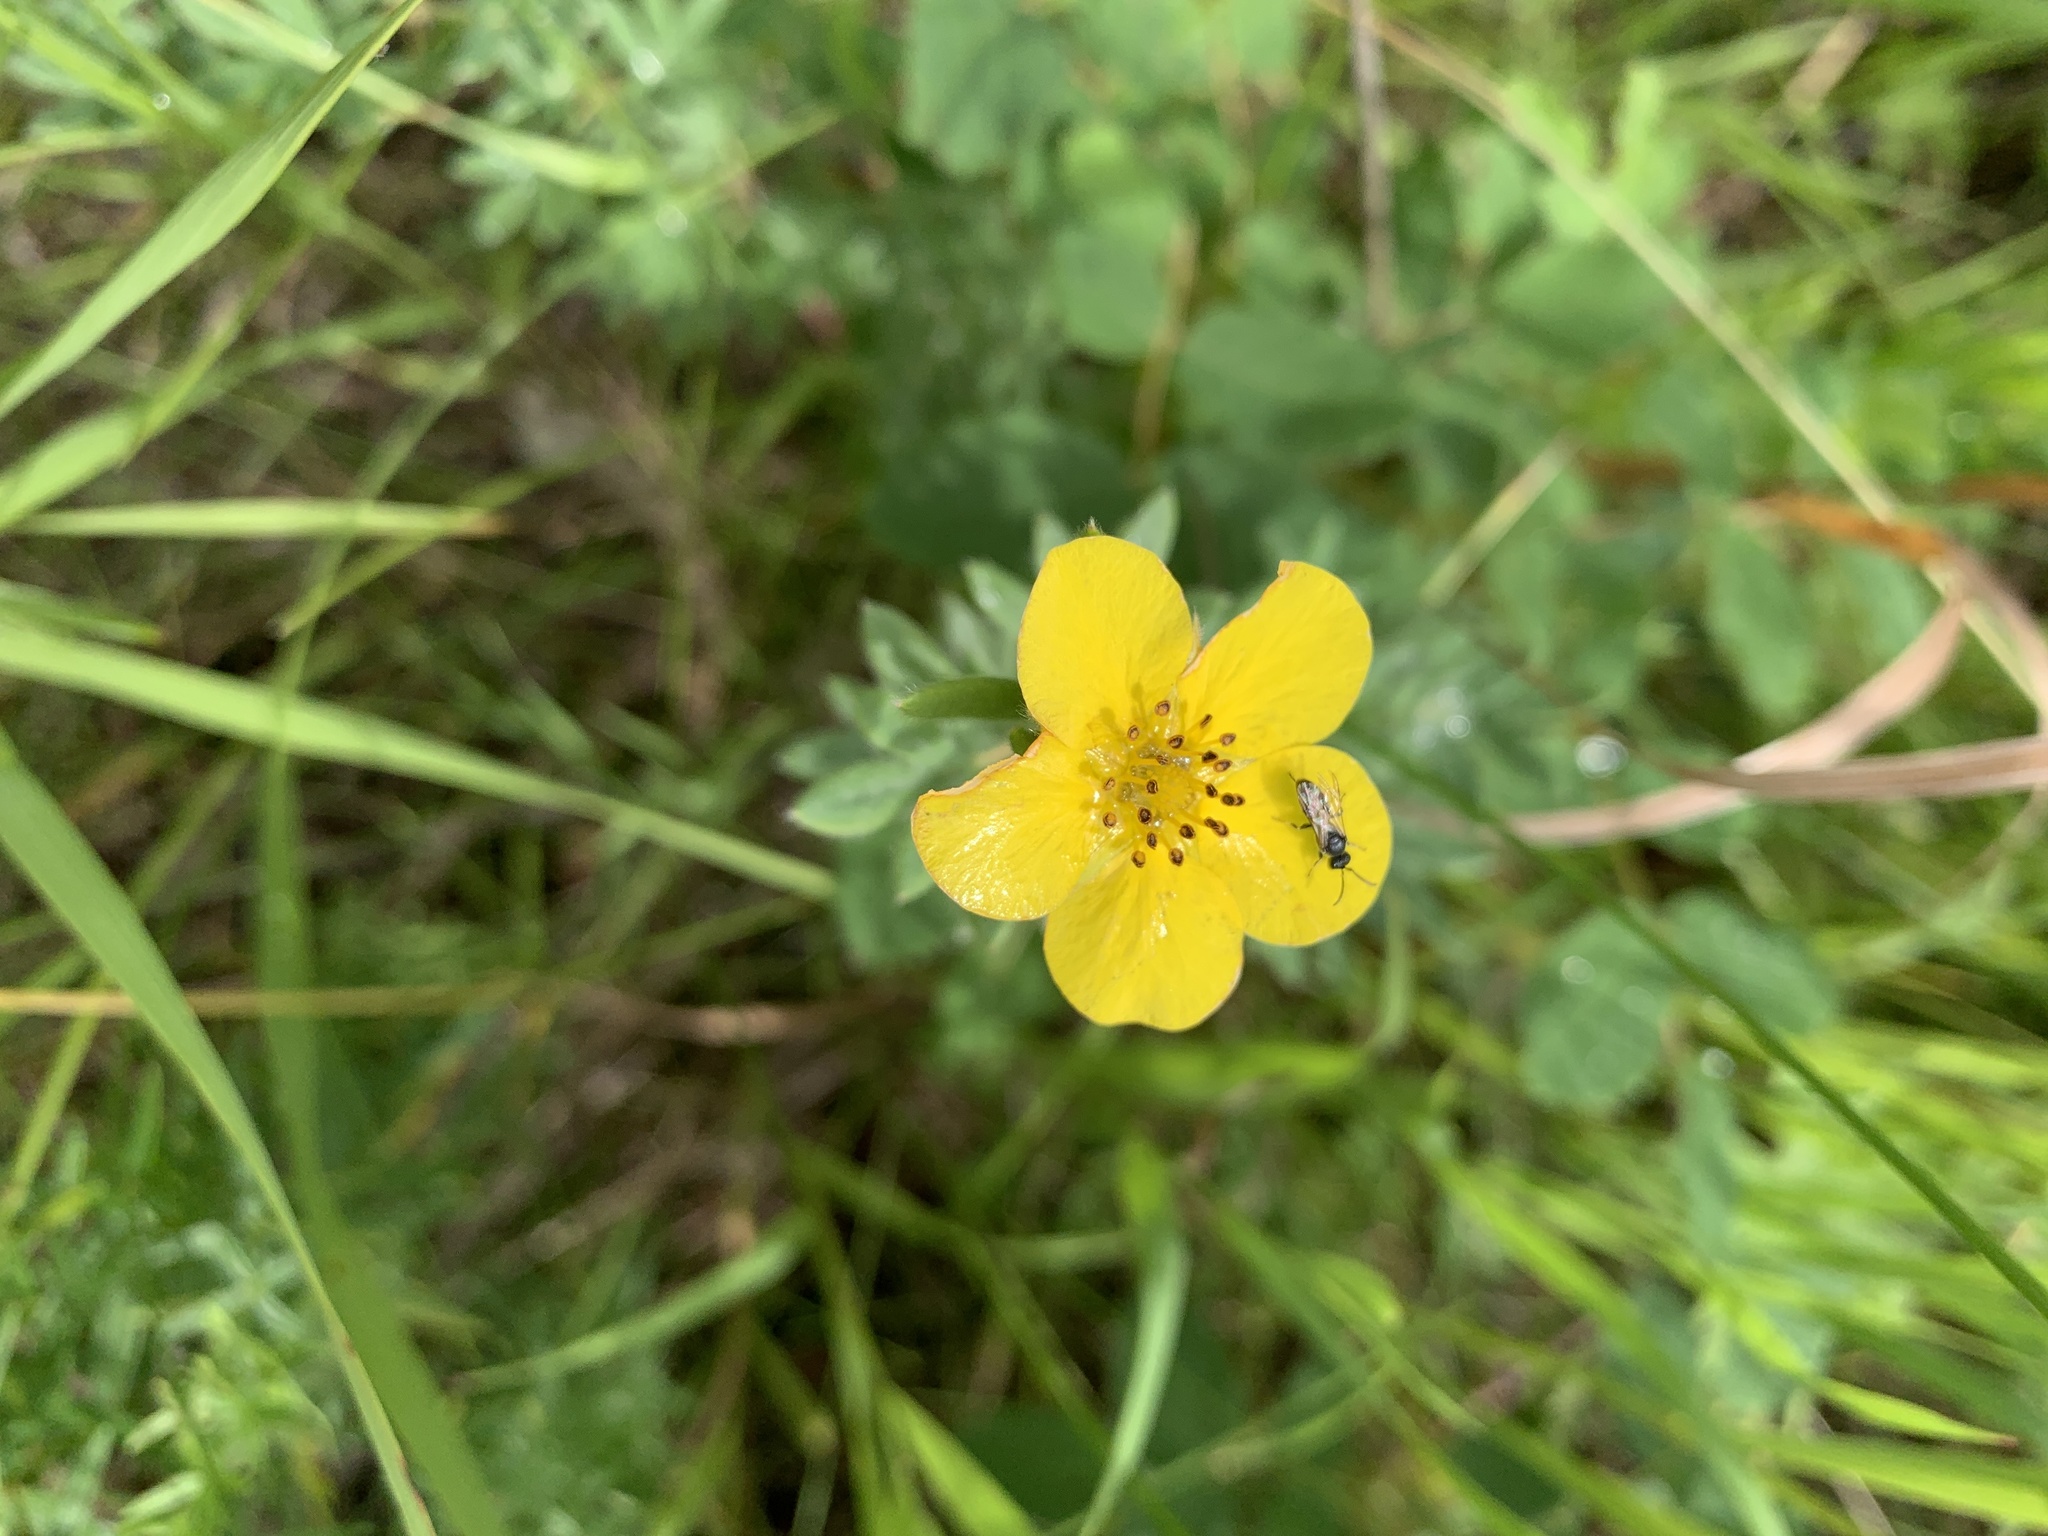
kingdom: Plantae
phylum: Tracheophyta
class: Magnoliopsida
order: Rosales
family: Rosaceae
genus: Dasiphora
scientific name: Dasiphora fruticosa
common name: Shrubby cinquefoil
